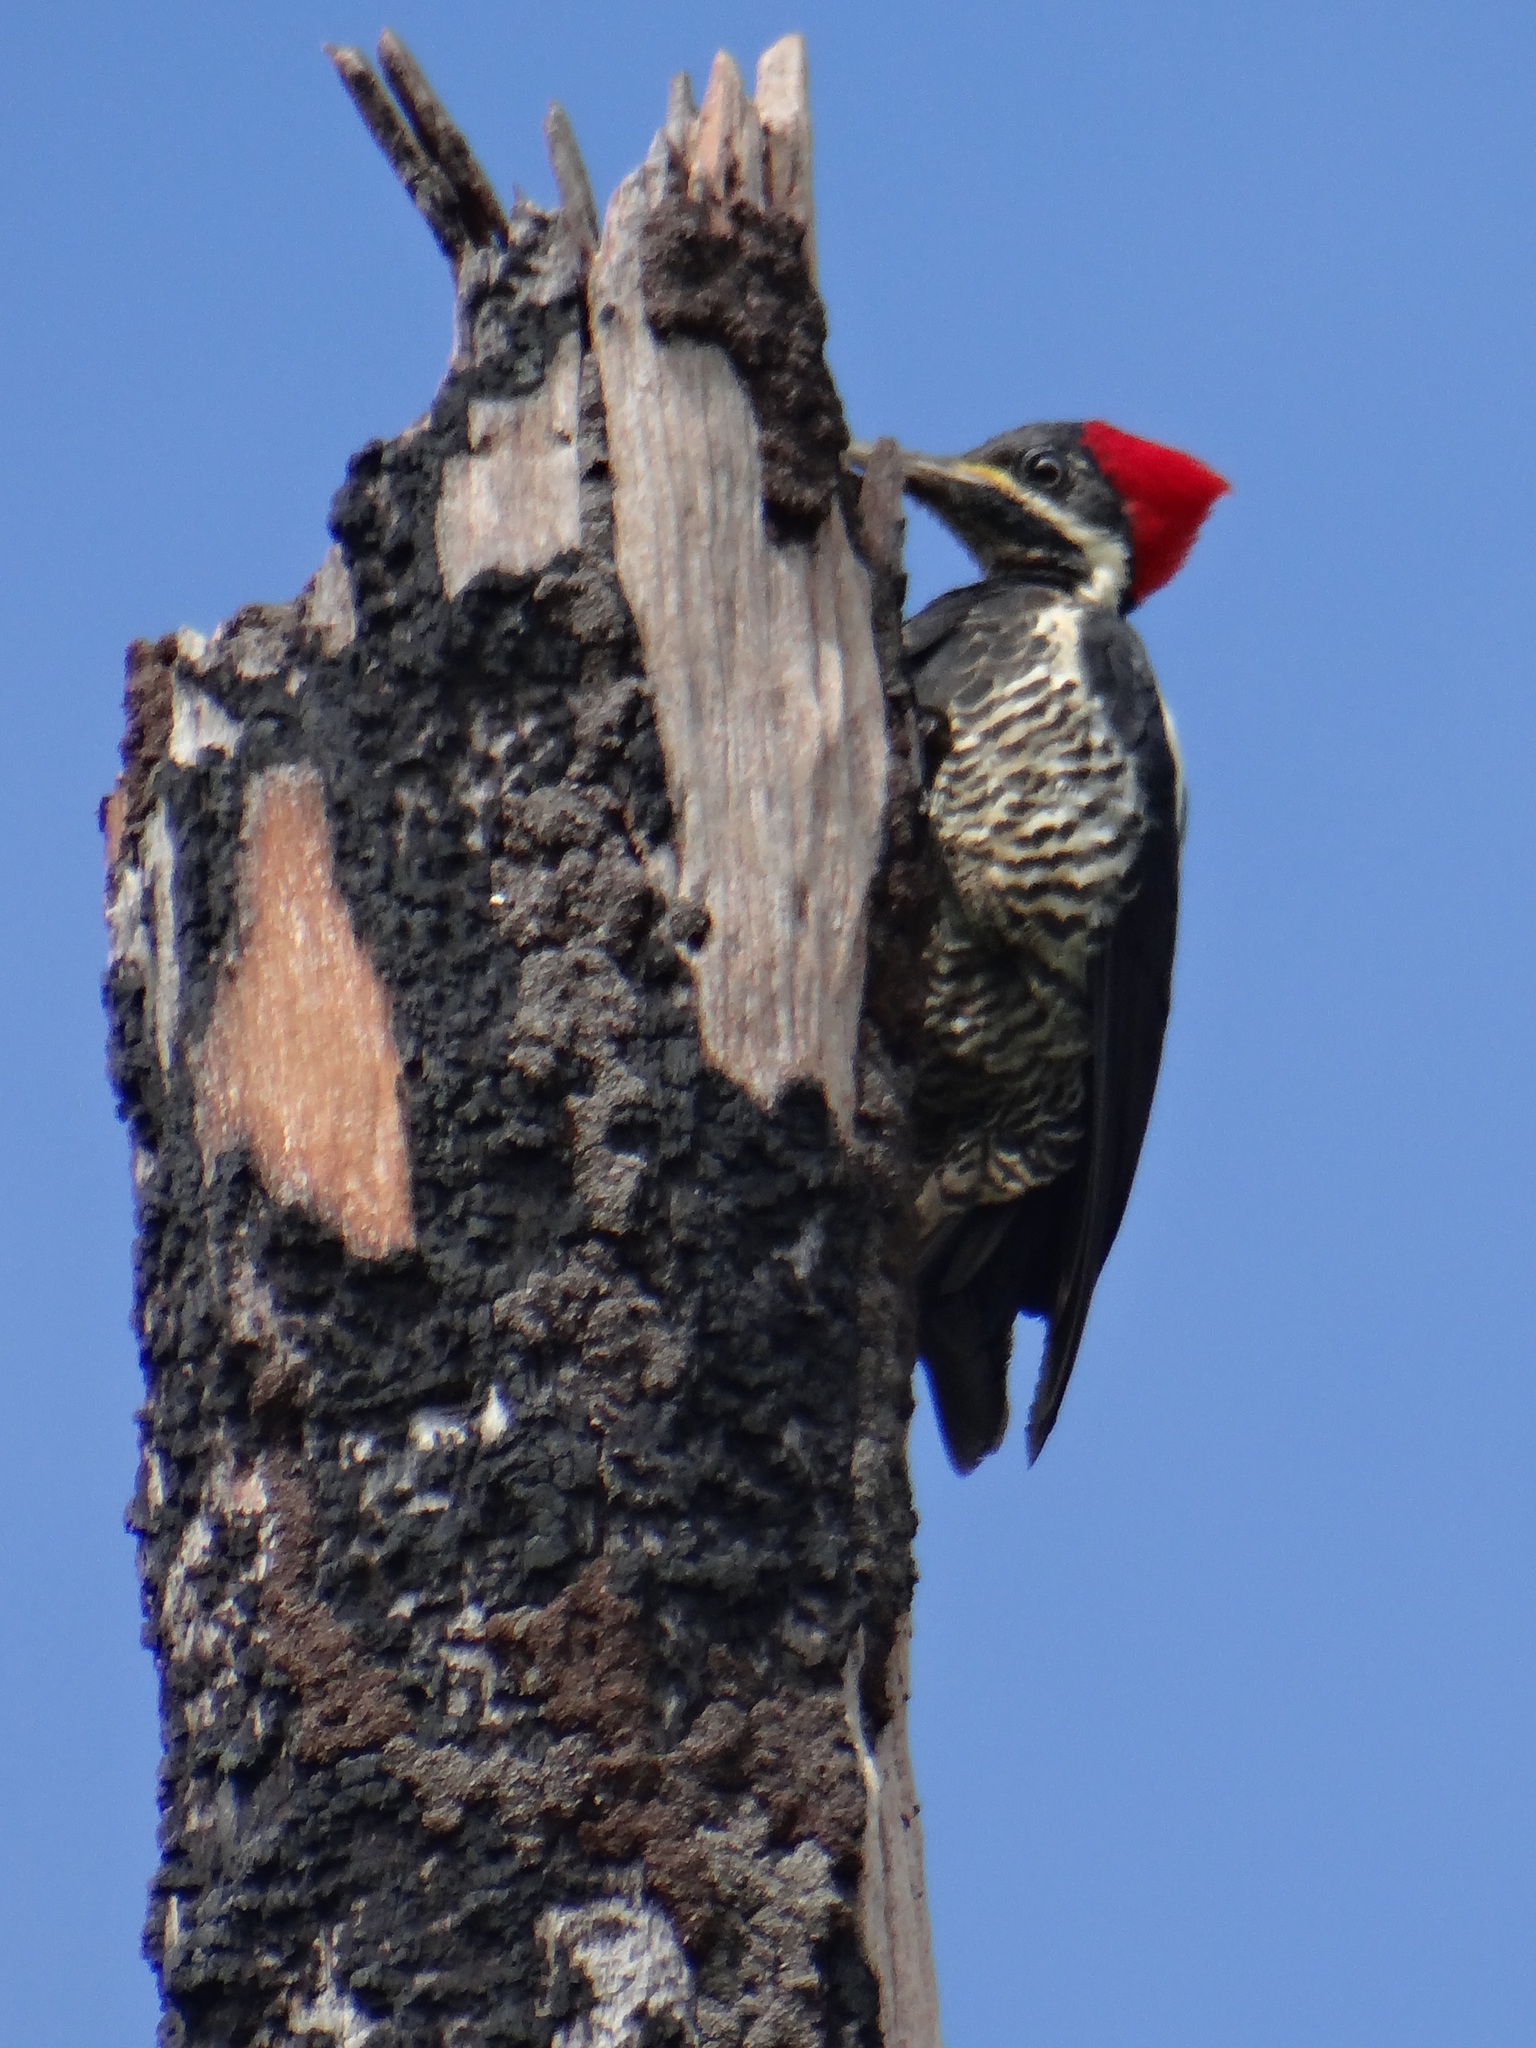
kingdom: Animalia
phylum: Chordata
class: Aves
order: Piciformes
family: Picidae
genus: Dryocopus
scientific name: Dryocopus lineatus
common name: Lineated woodpecker
